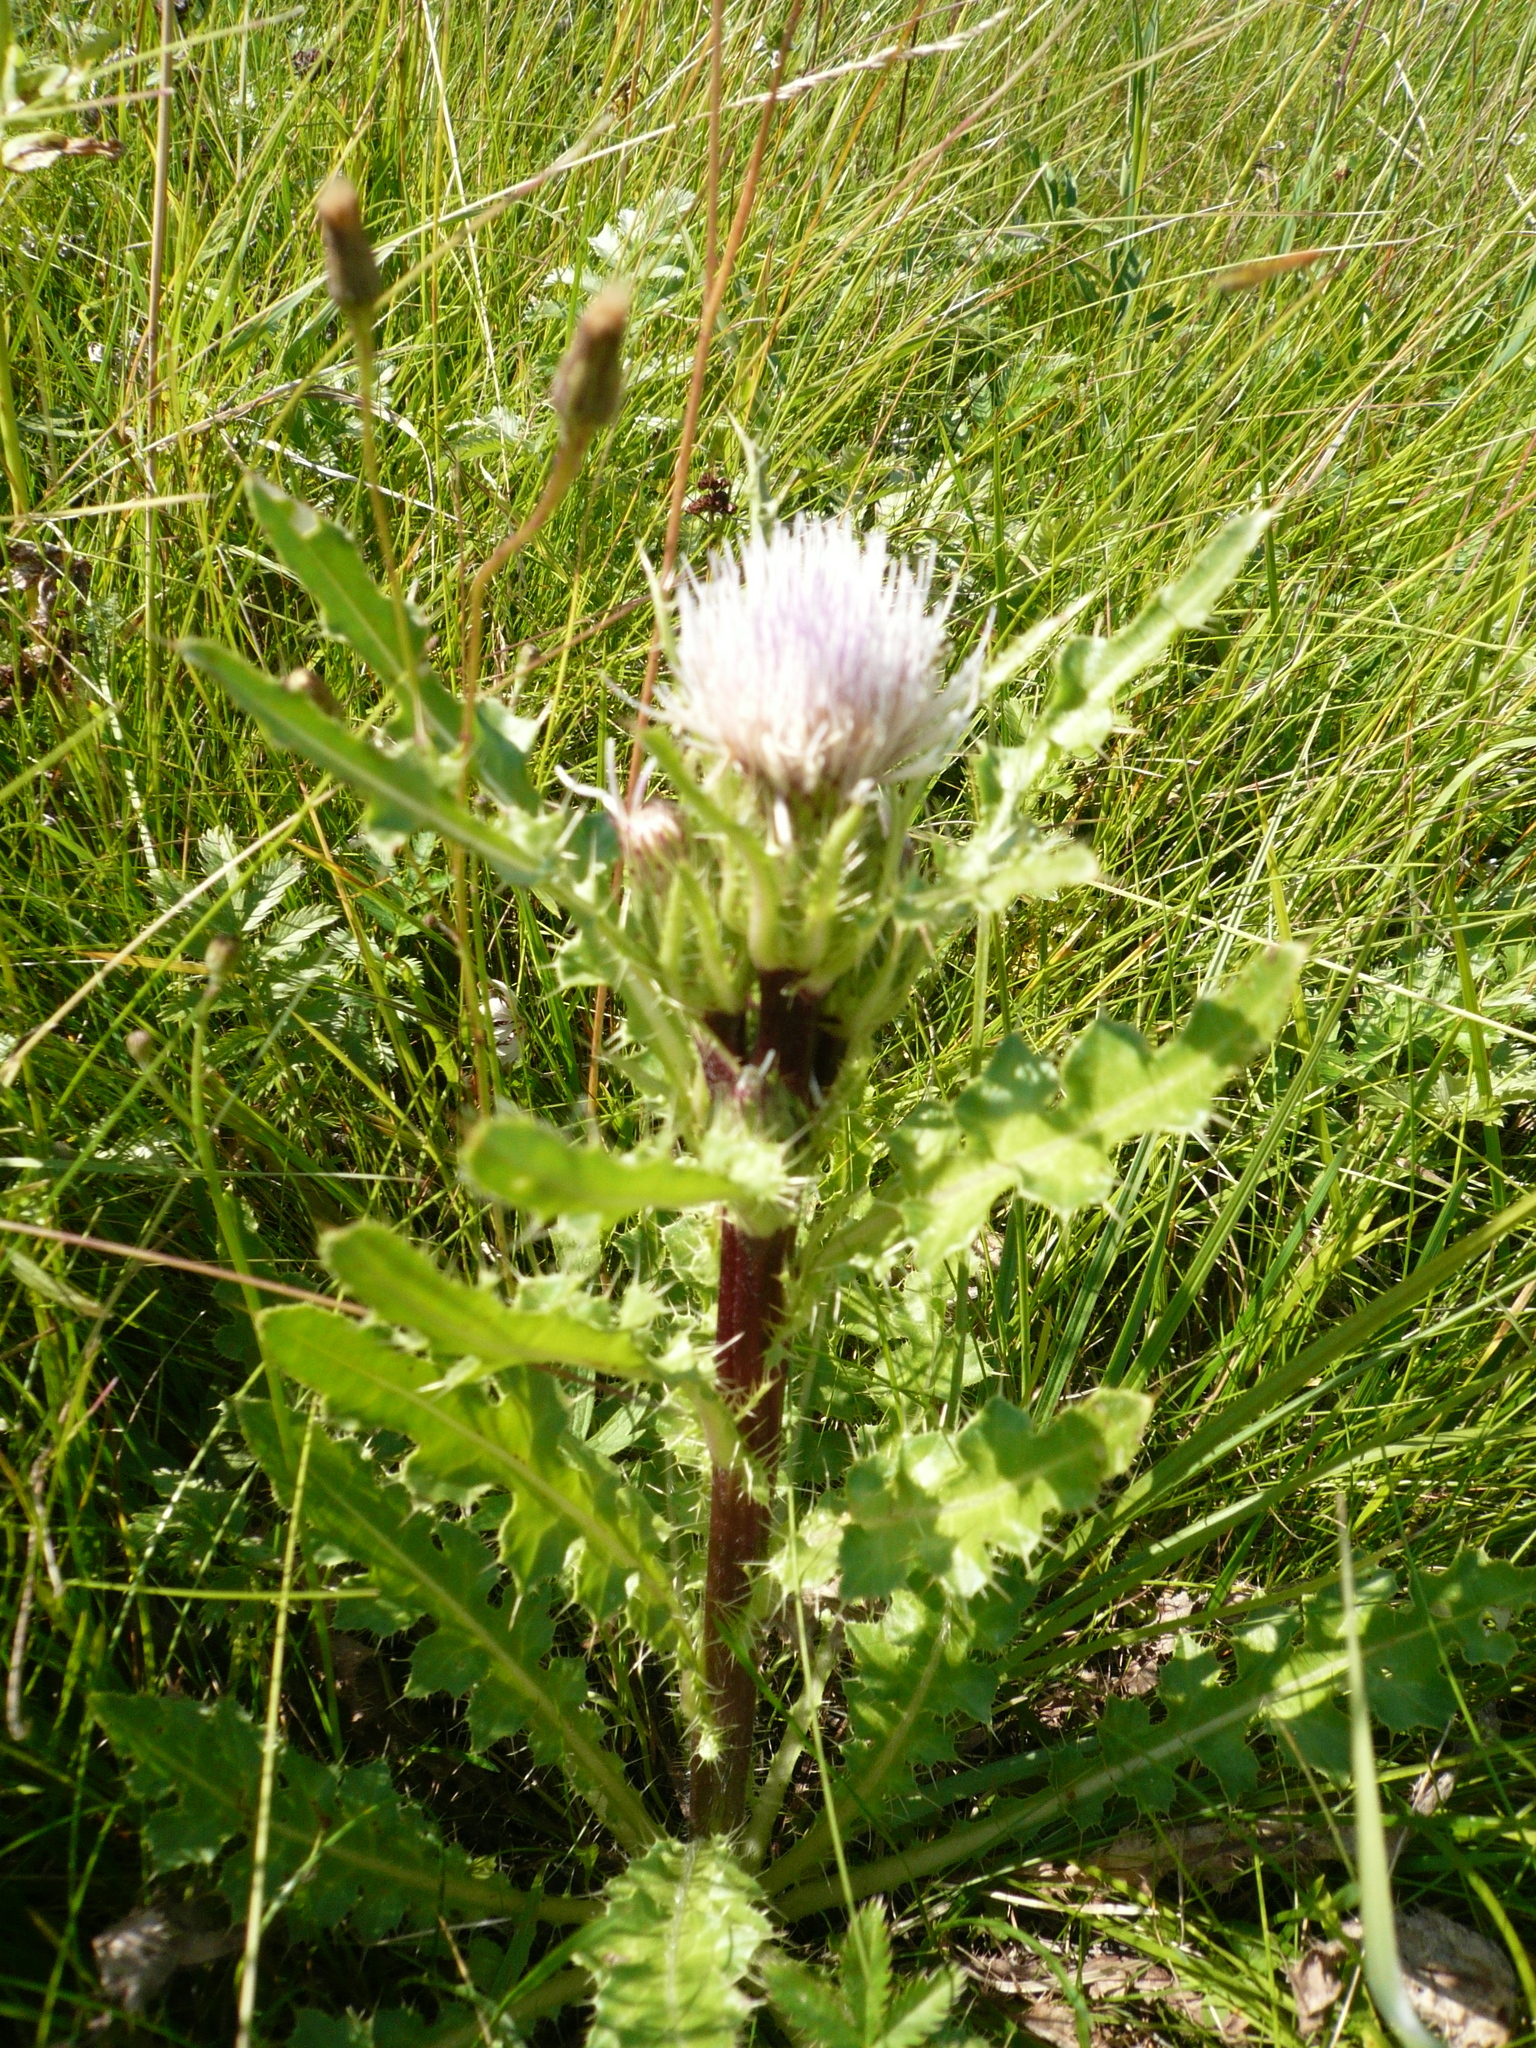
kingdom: Plantae
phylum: Tracheophyta
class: Magnoliopsida
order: Asterales
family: Asteraceae
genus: Cirsium
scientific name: Cirsium esculentum
